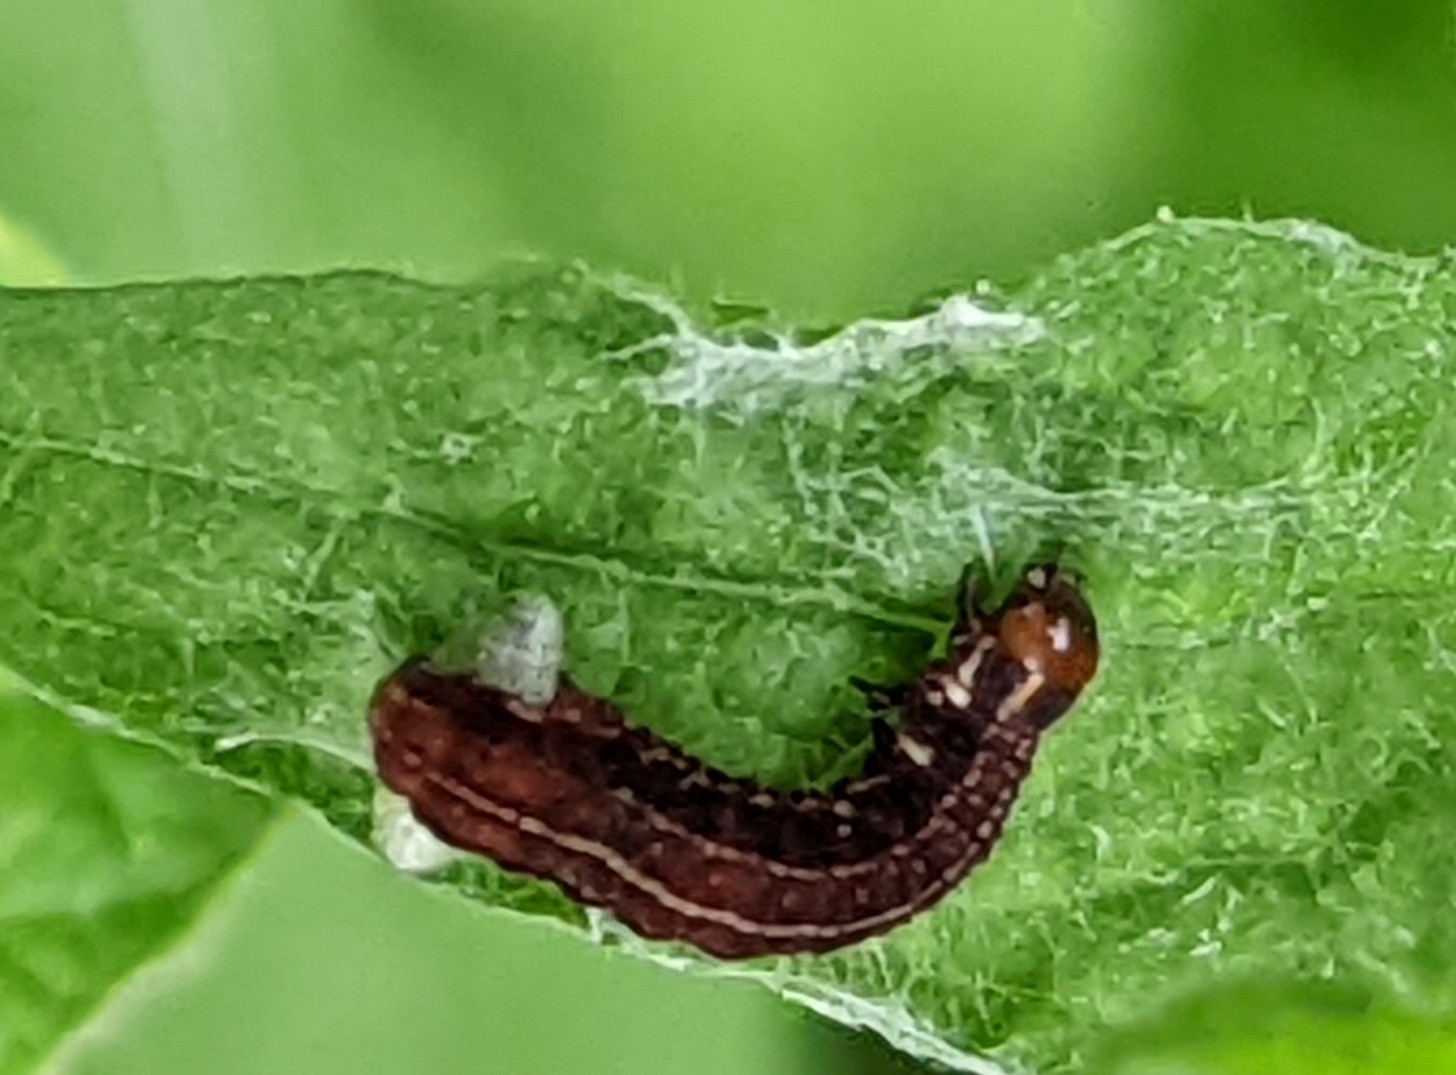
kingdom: Animalia
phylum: Arthropoda
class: Insecta
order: Lepidoptera
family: Noctuidae
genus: Eupsilia
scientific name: Eupsilia transversa
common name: Satellite
